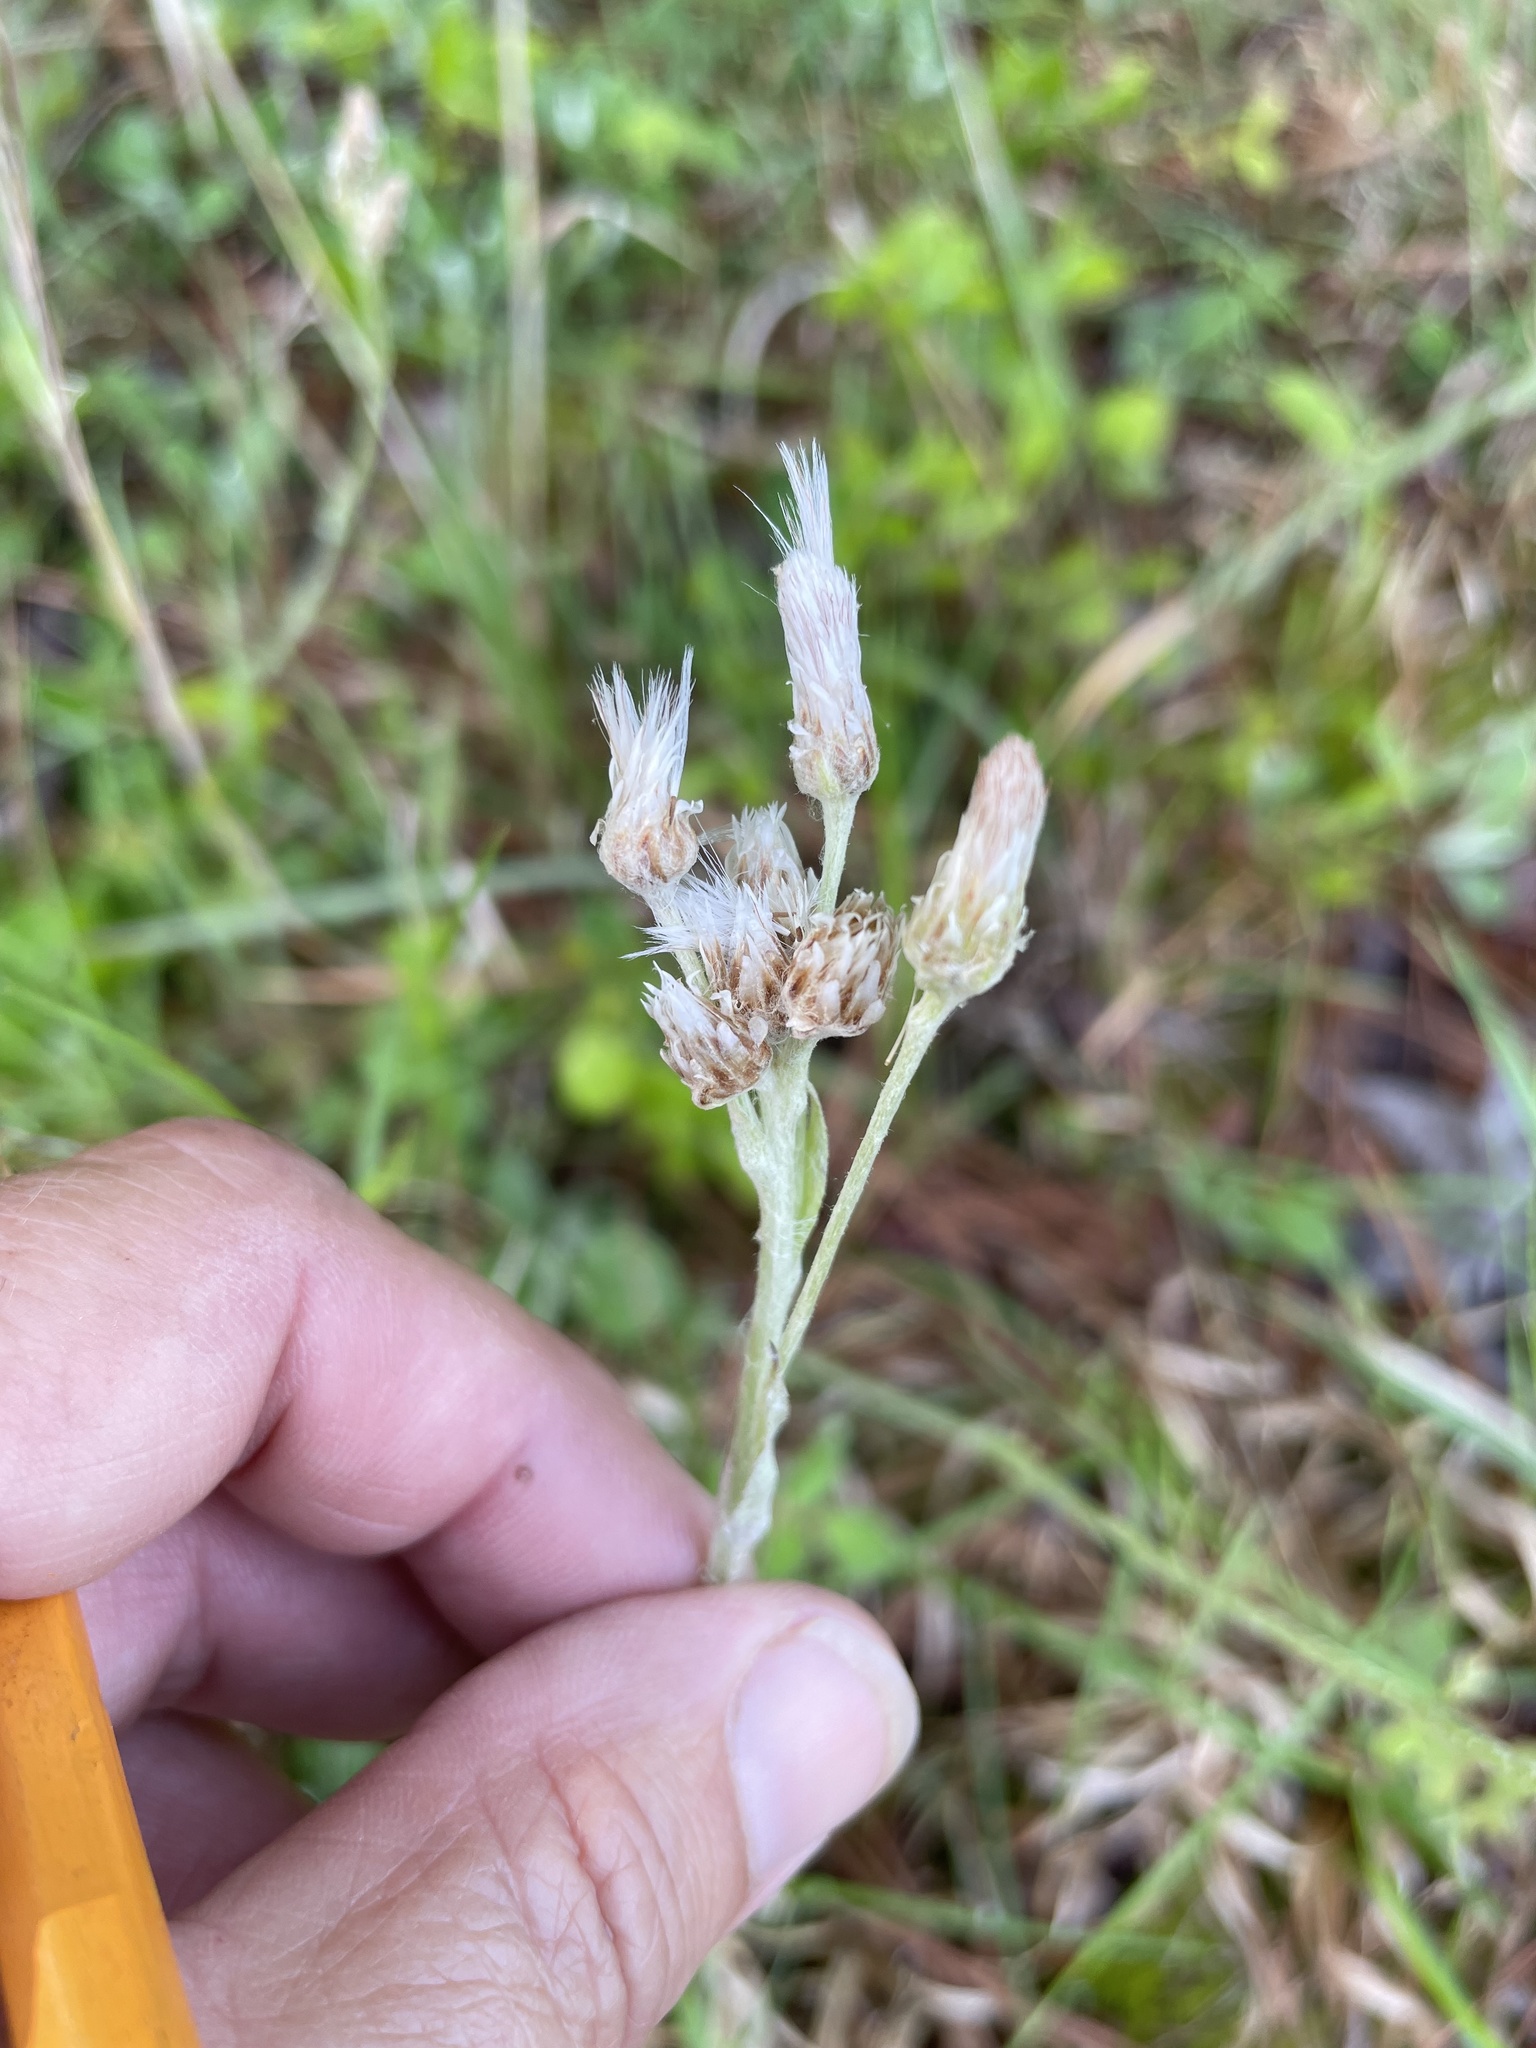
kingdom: Plantae
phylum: Tracheophyta
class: Magnoliopsida
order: Asterales
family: Asteraceae
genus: Antennaria
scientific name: Antennaria parlinii
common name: Parlin's pussytoes
